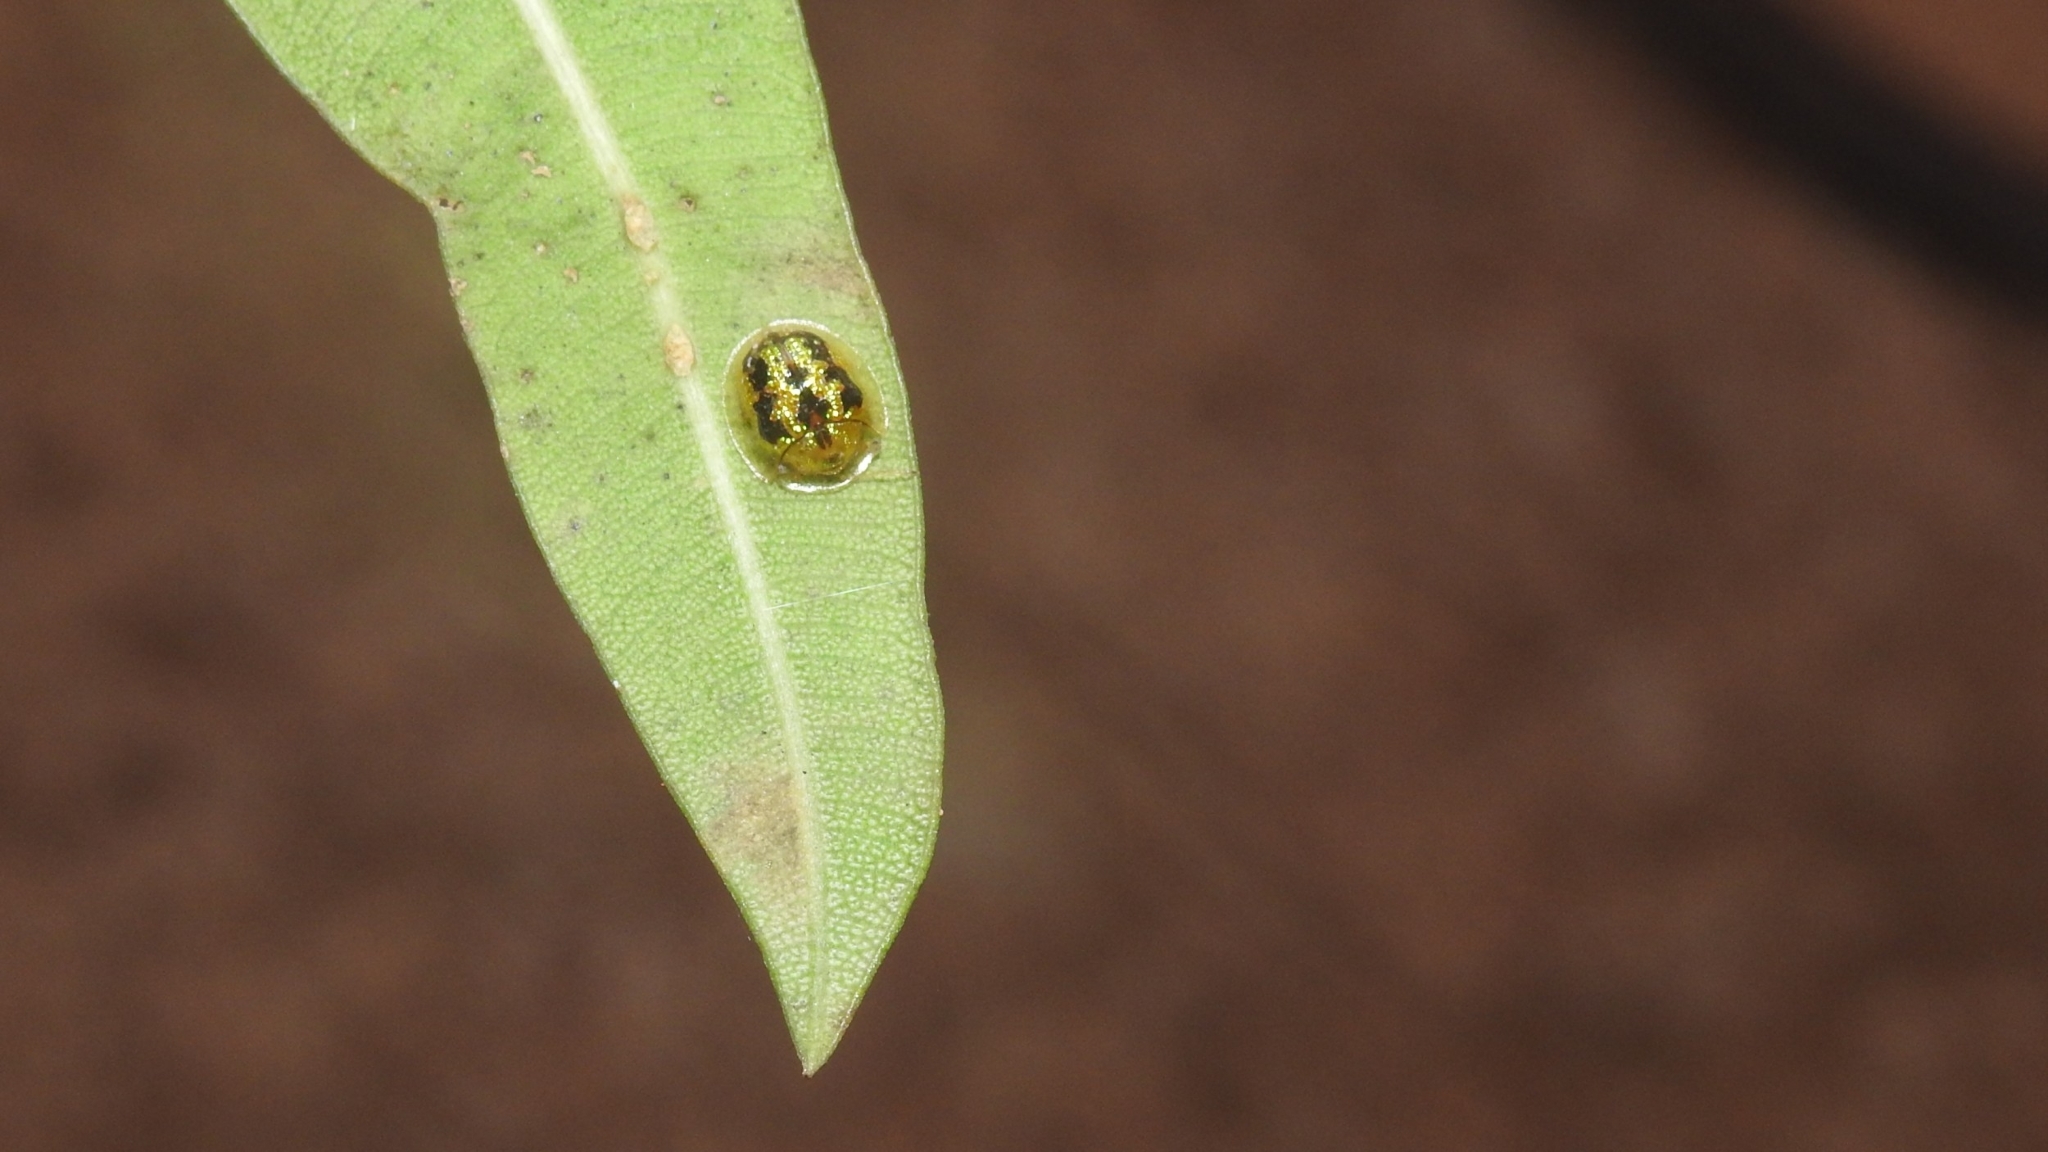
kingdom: Animalia
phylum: Arthropoda
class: Insecta
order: Coleoptera
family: Chrysomelidae
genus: Cassida
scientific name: Cassida circumdata
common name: Tortoise beetle
